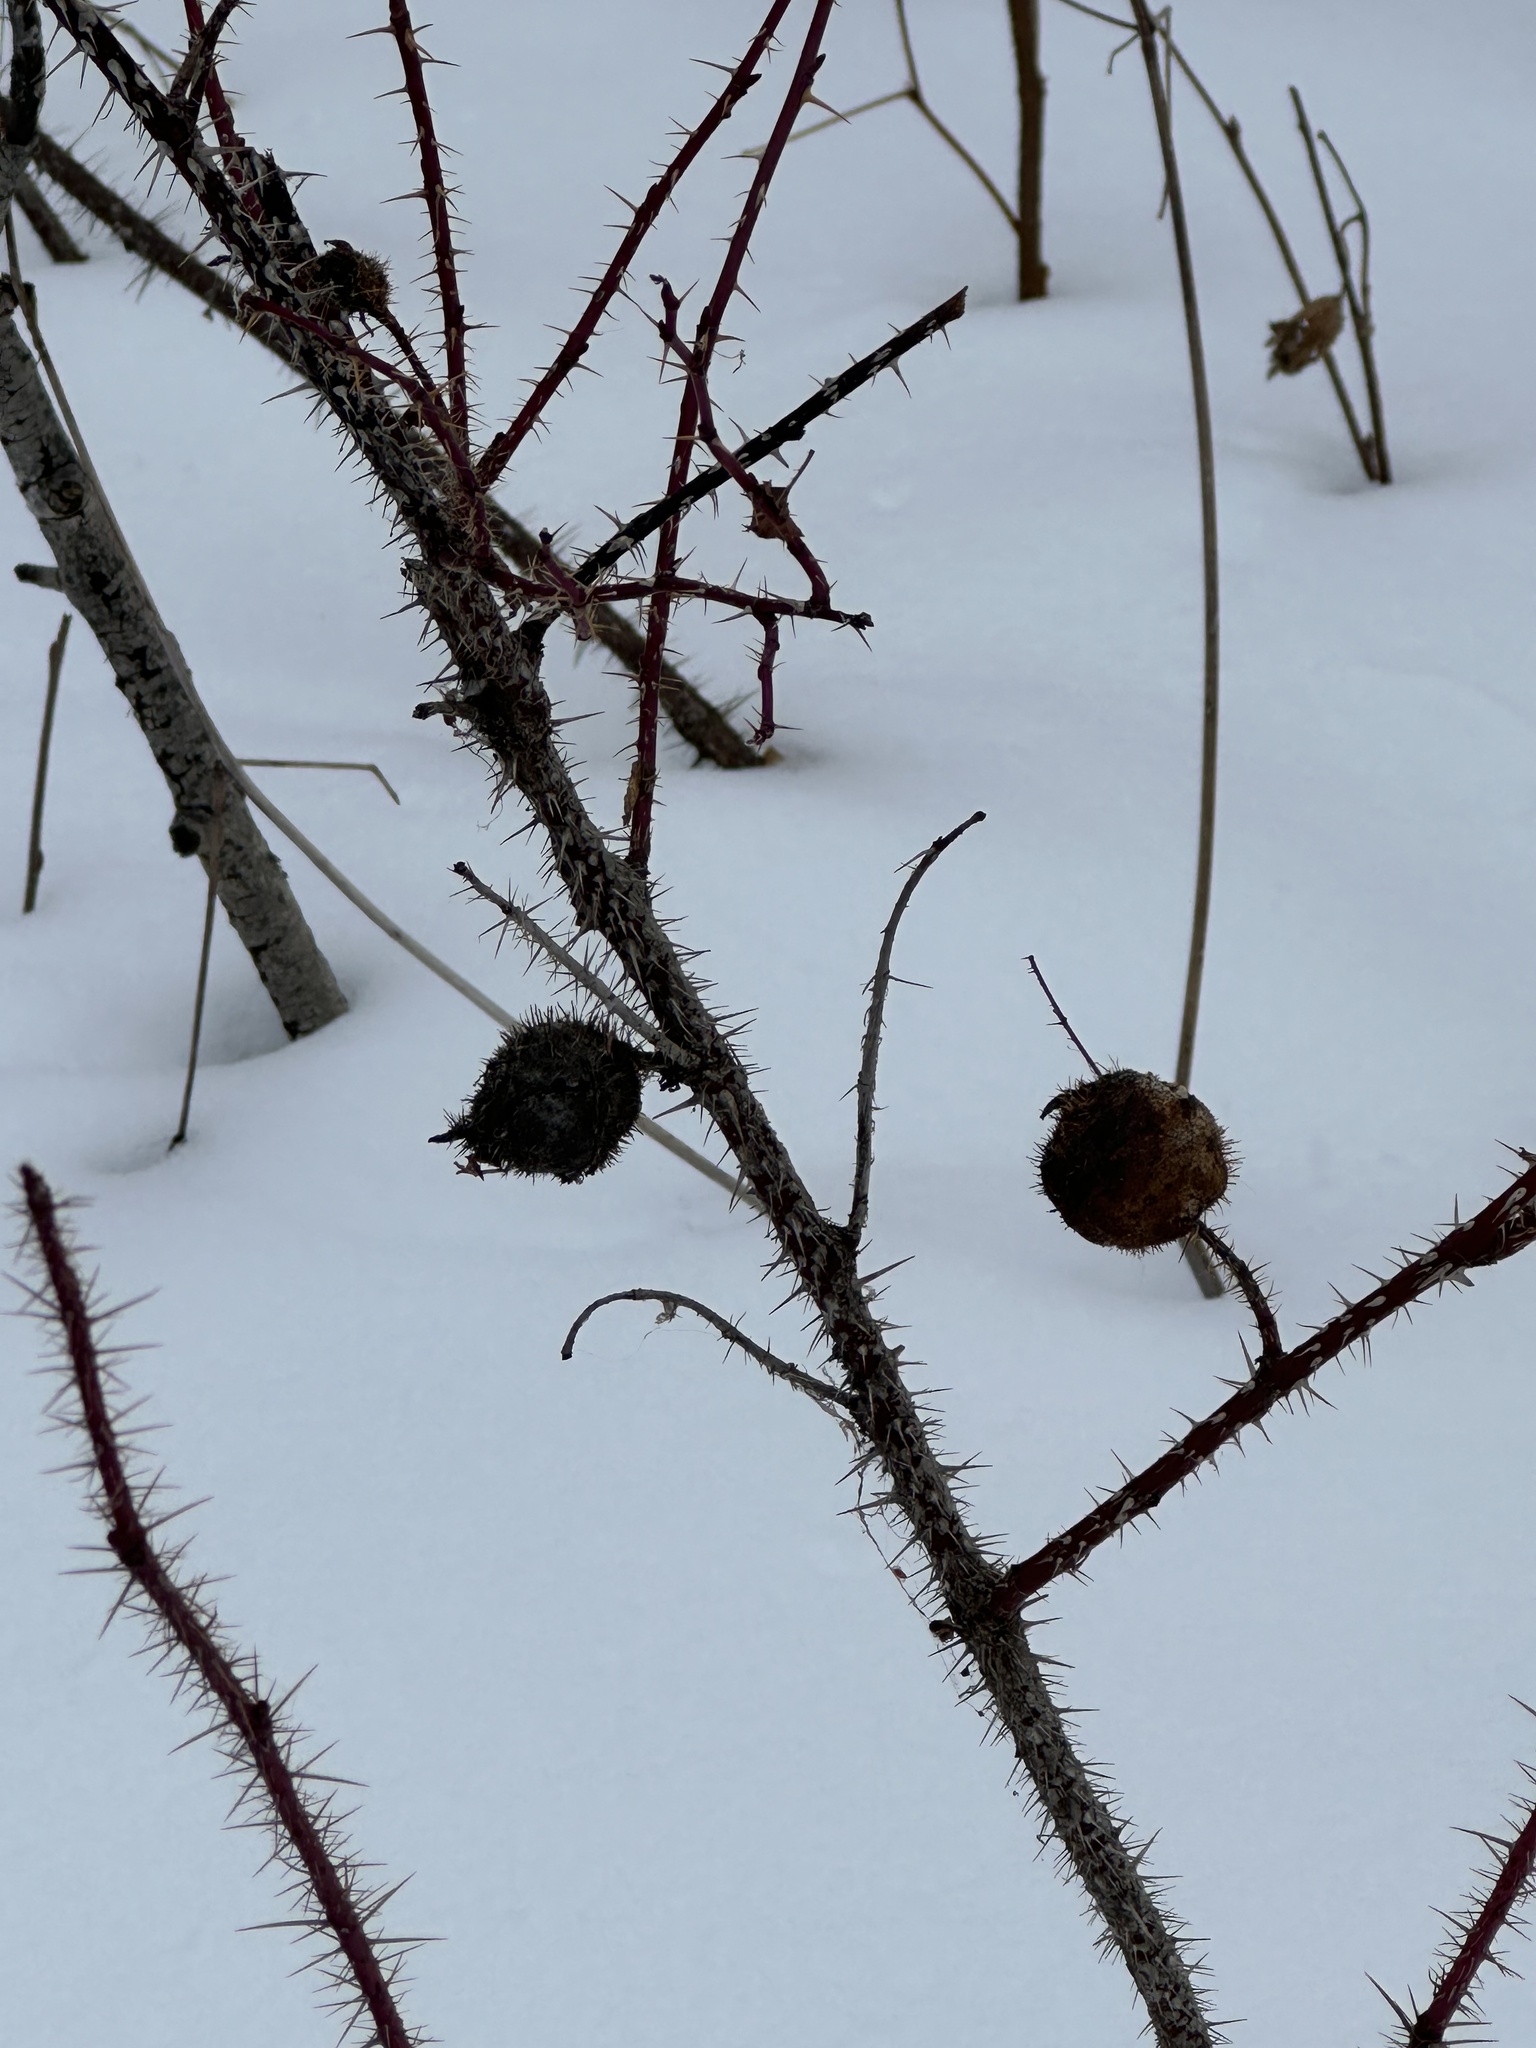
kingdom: Animalia
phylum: Arthropoda
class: Insecta
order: Hymenoptera
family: Cynipidae
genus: Diplolepis
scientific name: Diplolepis spinosa
